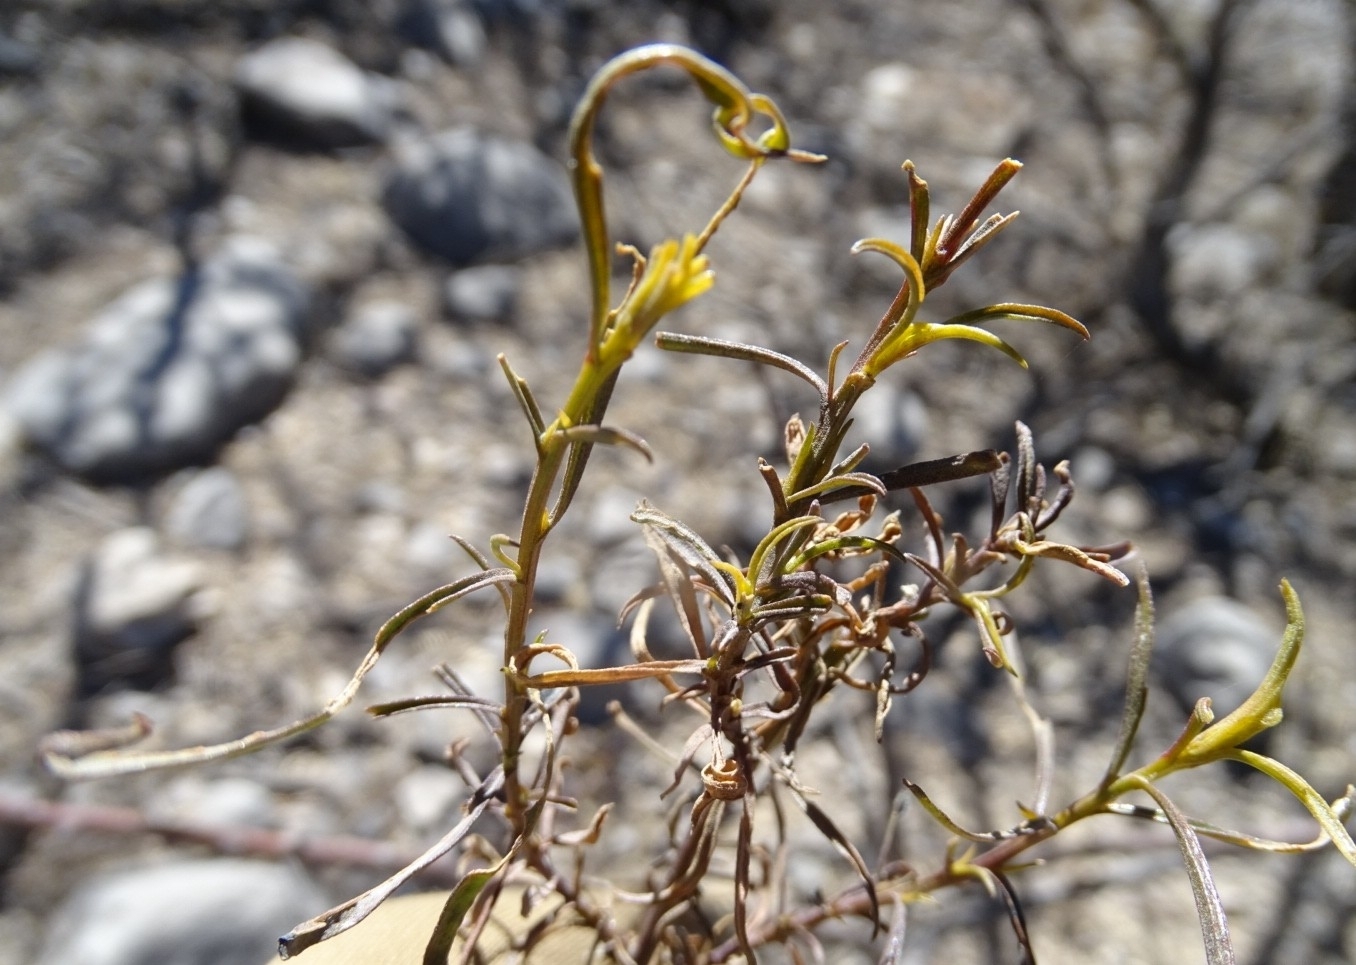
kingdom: Plantae
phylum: Tracheophyta
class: Magnoliopsida
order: Asterales
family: Asteraceae
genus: Gymnosperma
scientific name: Gymnosperma glutinosum
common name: Gumhead
